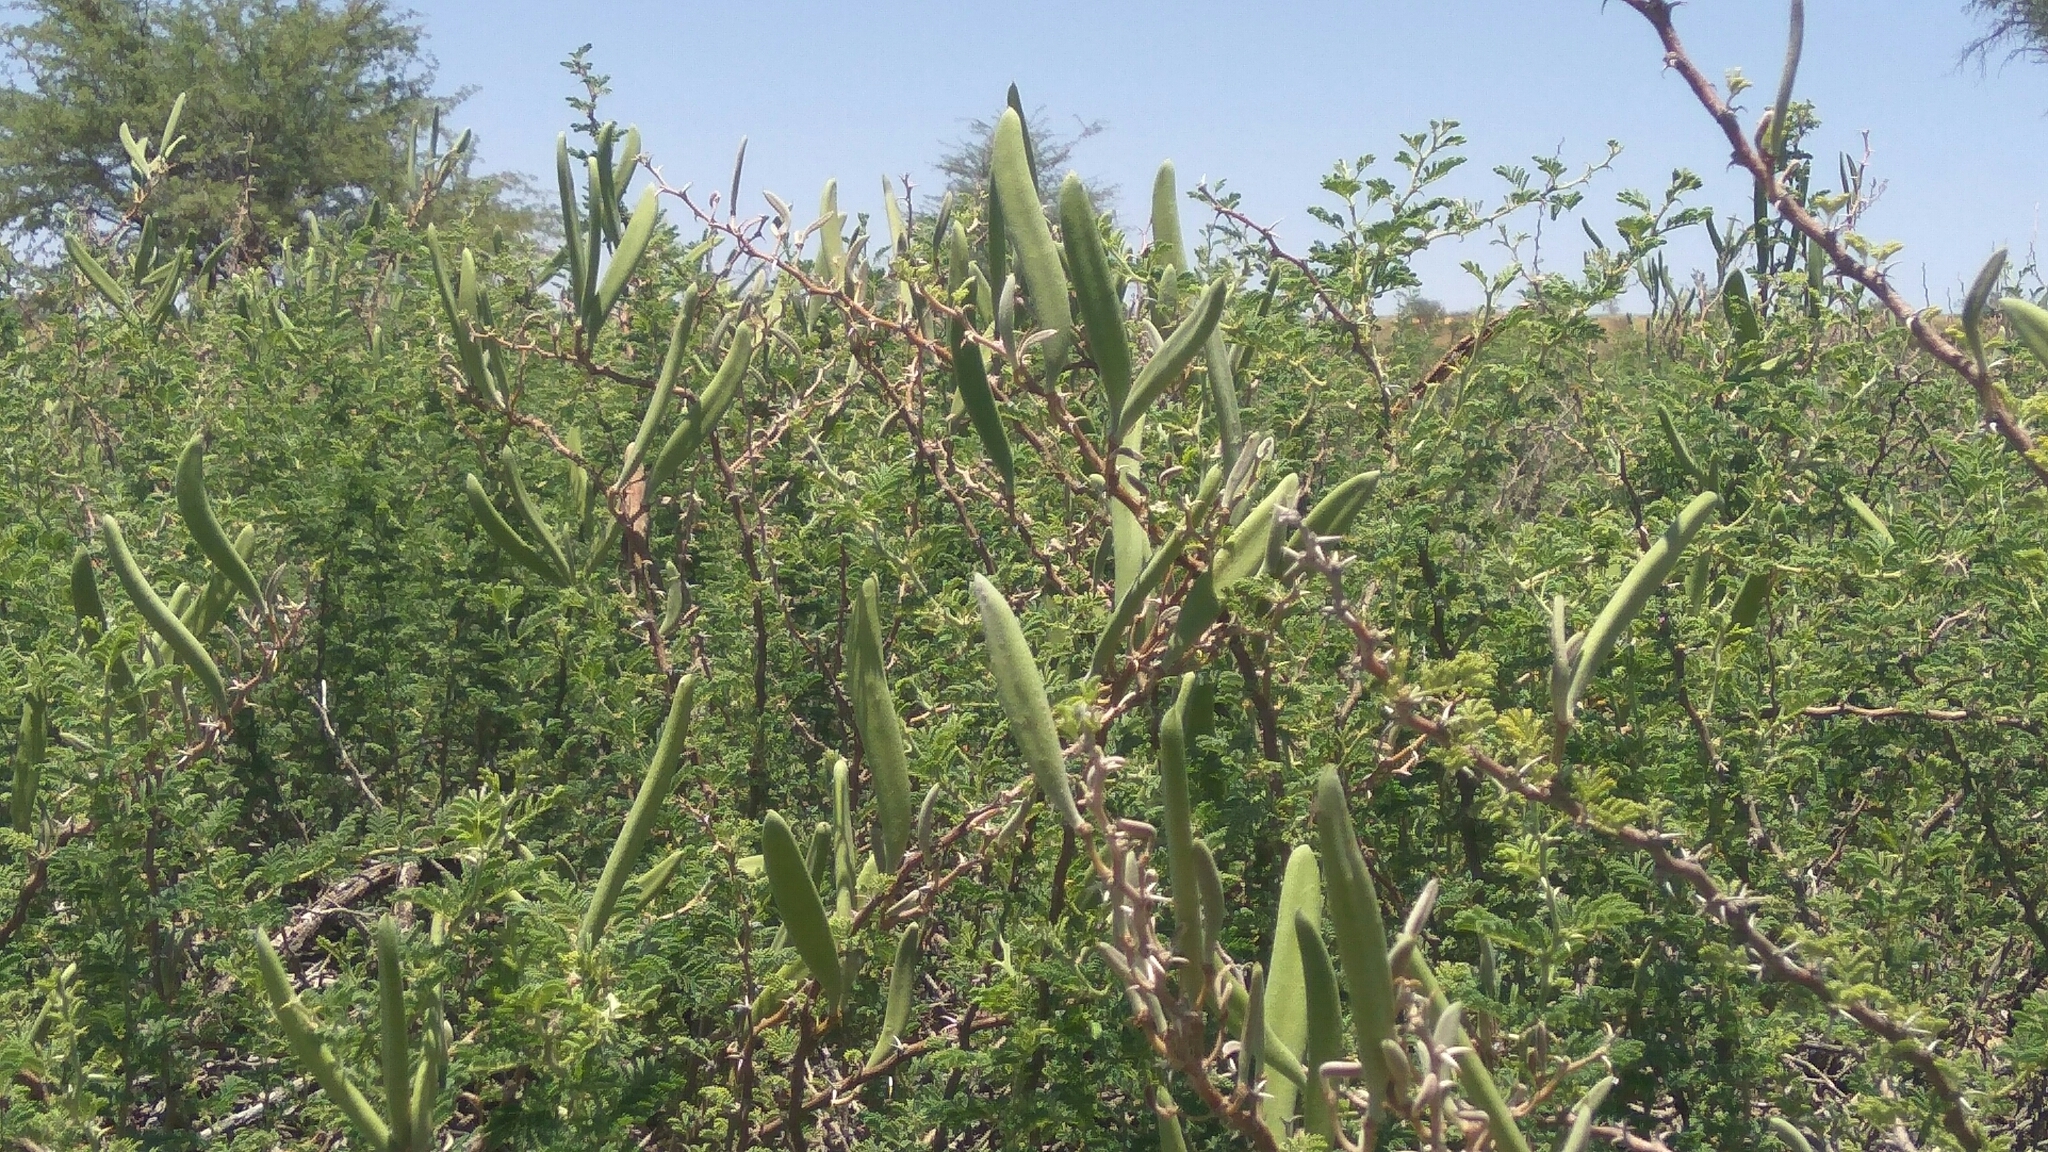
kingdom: Plantae
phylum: Tracheophyta
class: Magnoliopsida
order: Fabales
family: Fabaceae
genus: Vachellia
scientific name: Vachellia hebeclada
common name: Candle thorn
